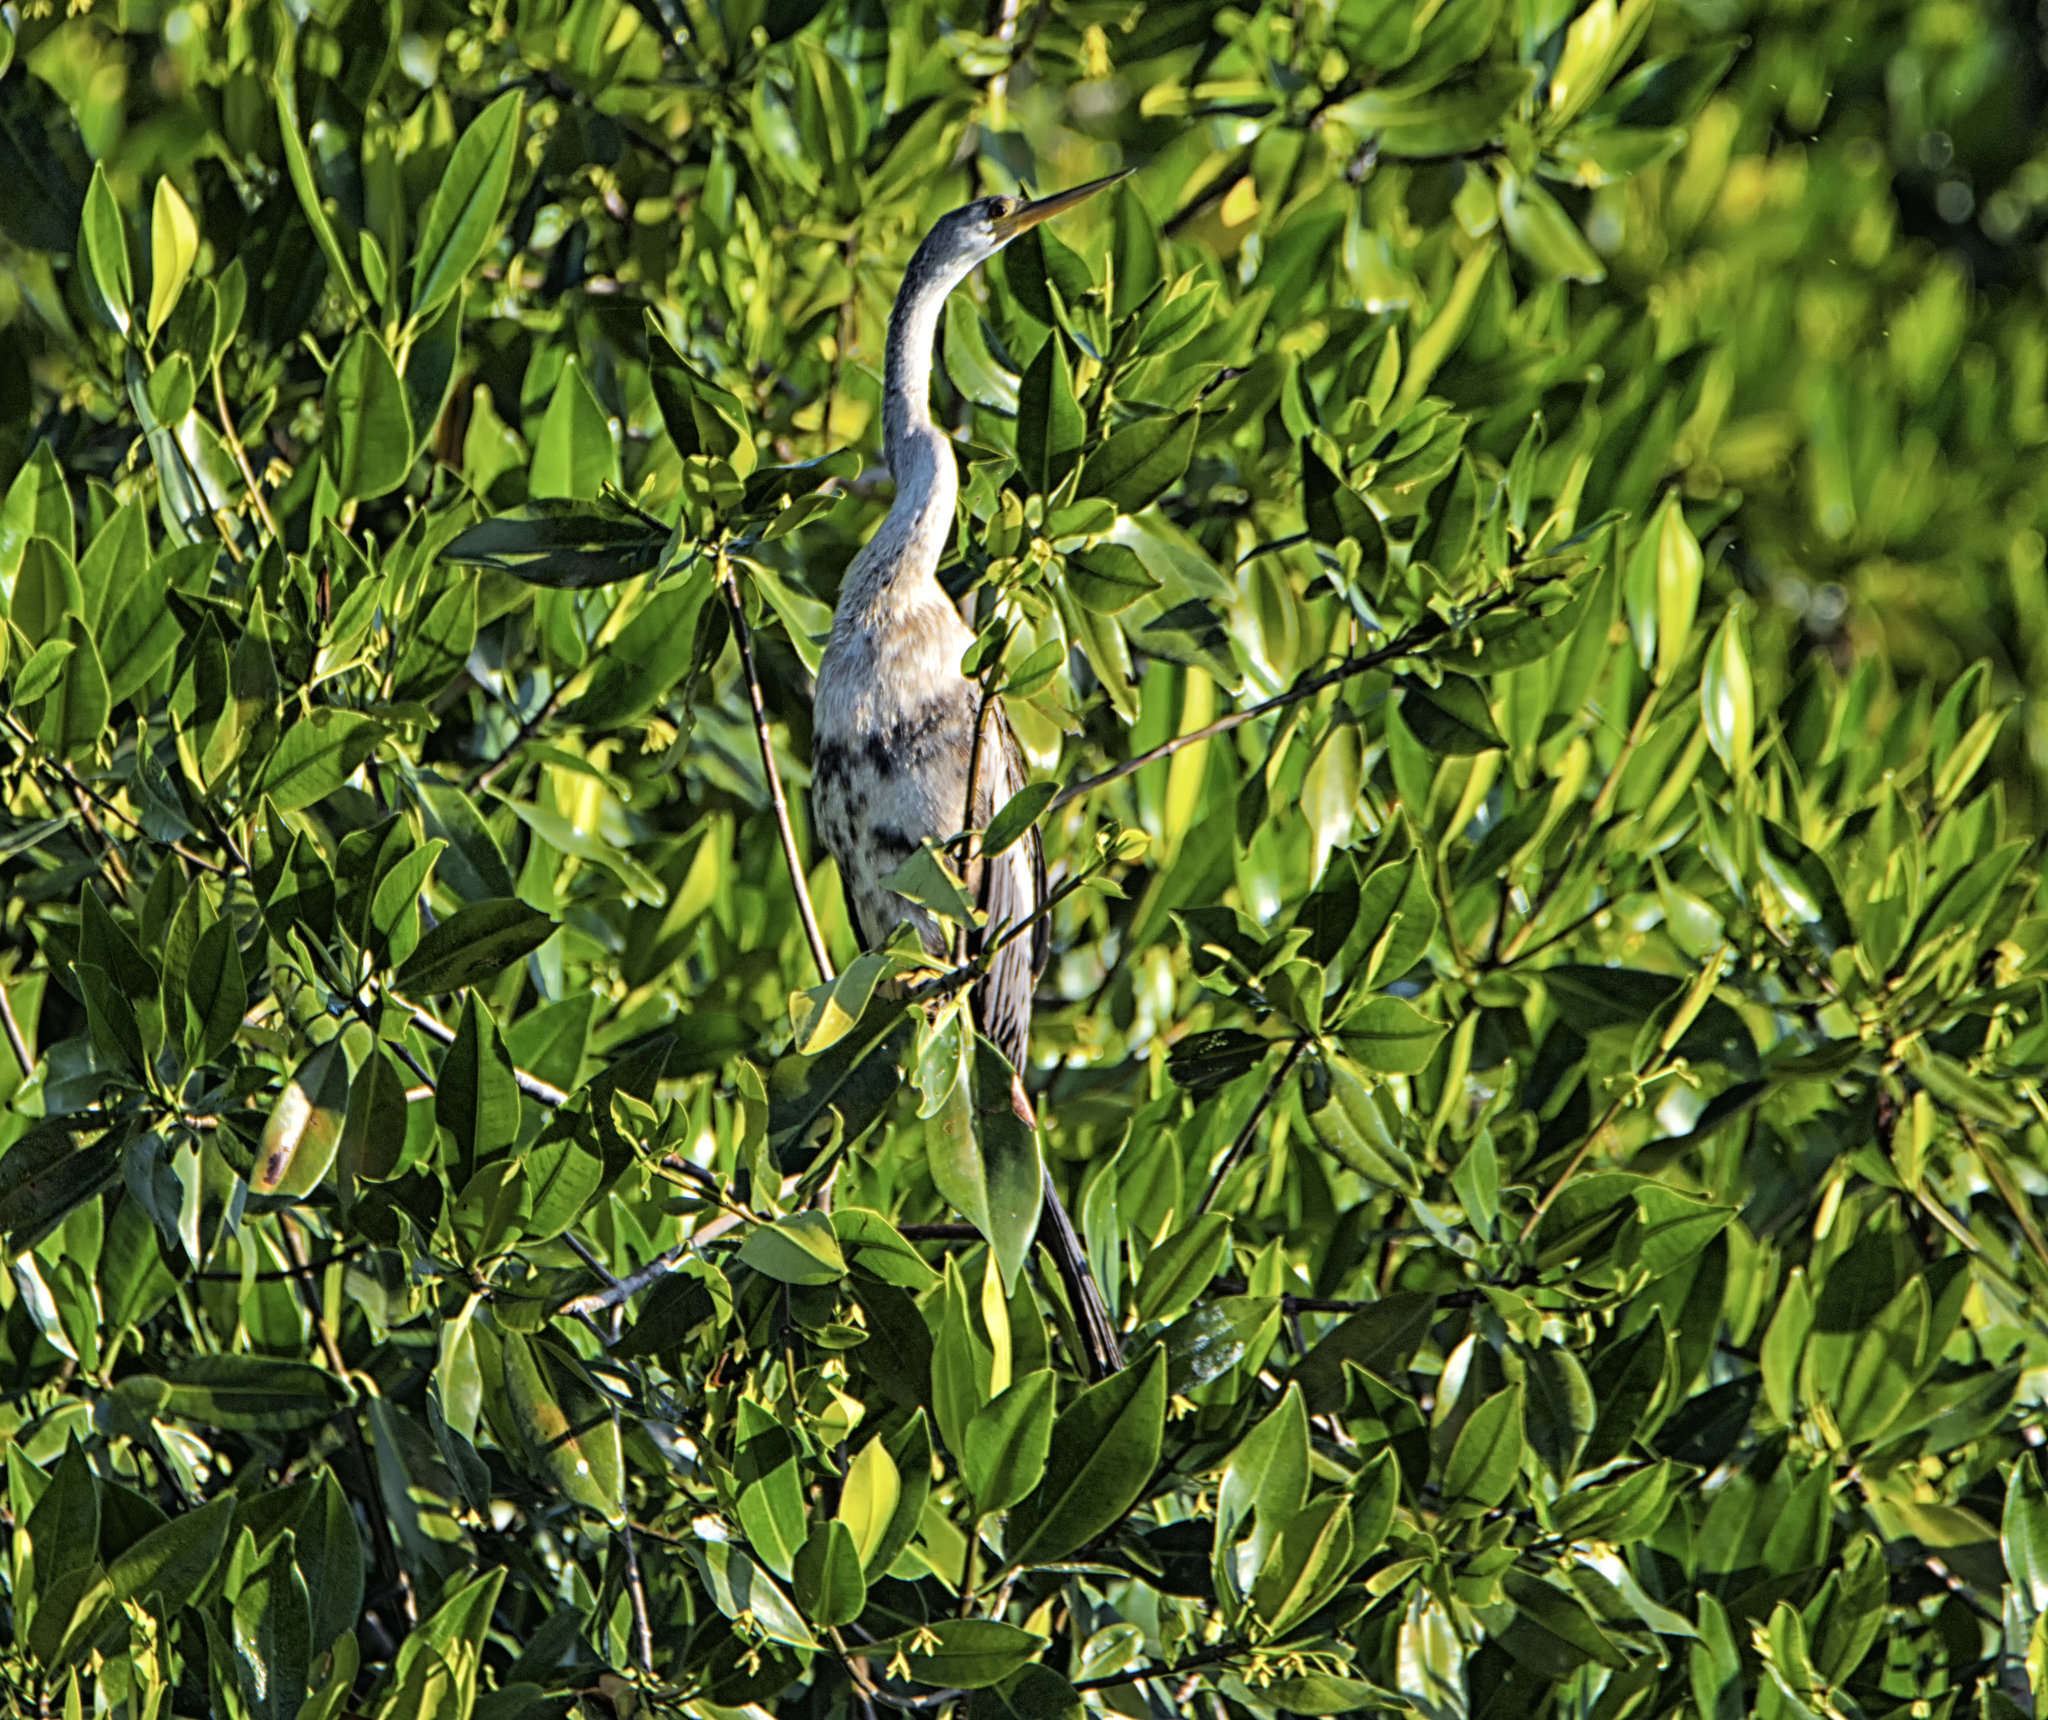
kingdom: Animalia
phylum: Chordata
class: Aves
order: Suliformes
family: Anhingidae
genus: Anhinga
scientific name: Anhinga anhinga
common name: Anhinga
